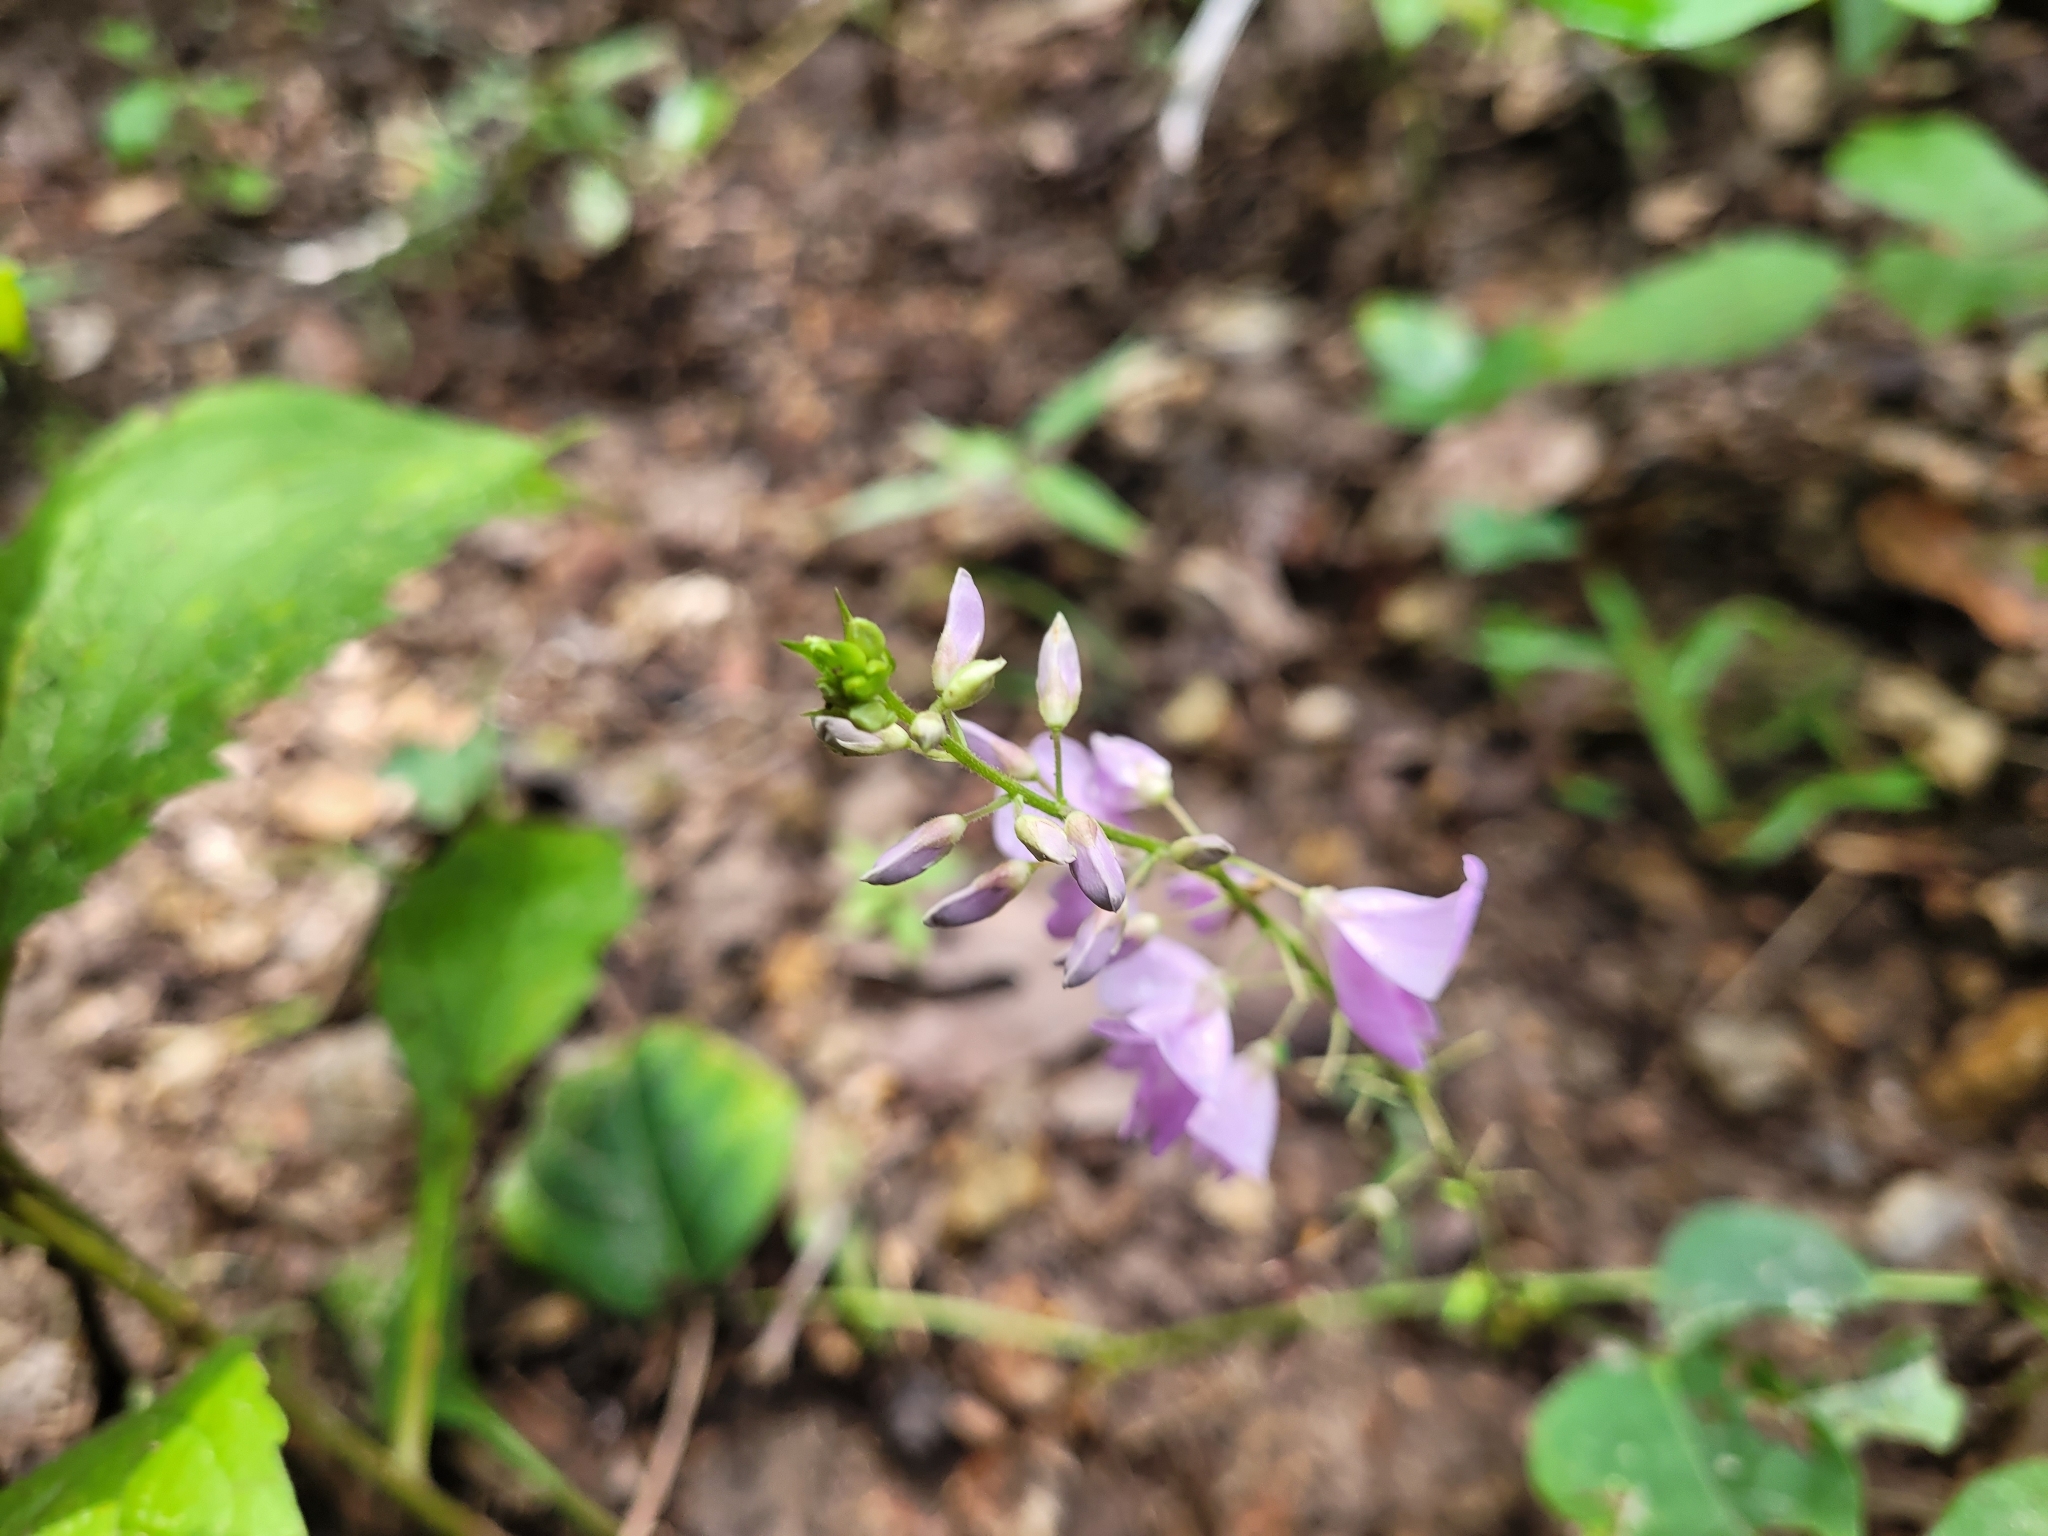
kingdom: Plantae
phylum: Tracheophyta
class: Magnoliopsida
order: Fabales
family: Fabaceae
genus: Hylodesmum
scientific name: Hylodesmum glutinosum
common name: Clustered-leaved tick-trefoil
